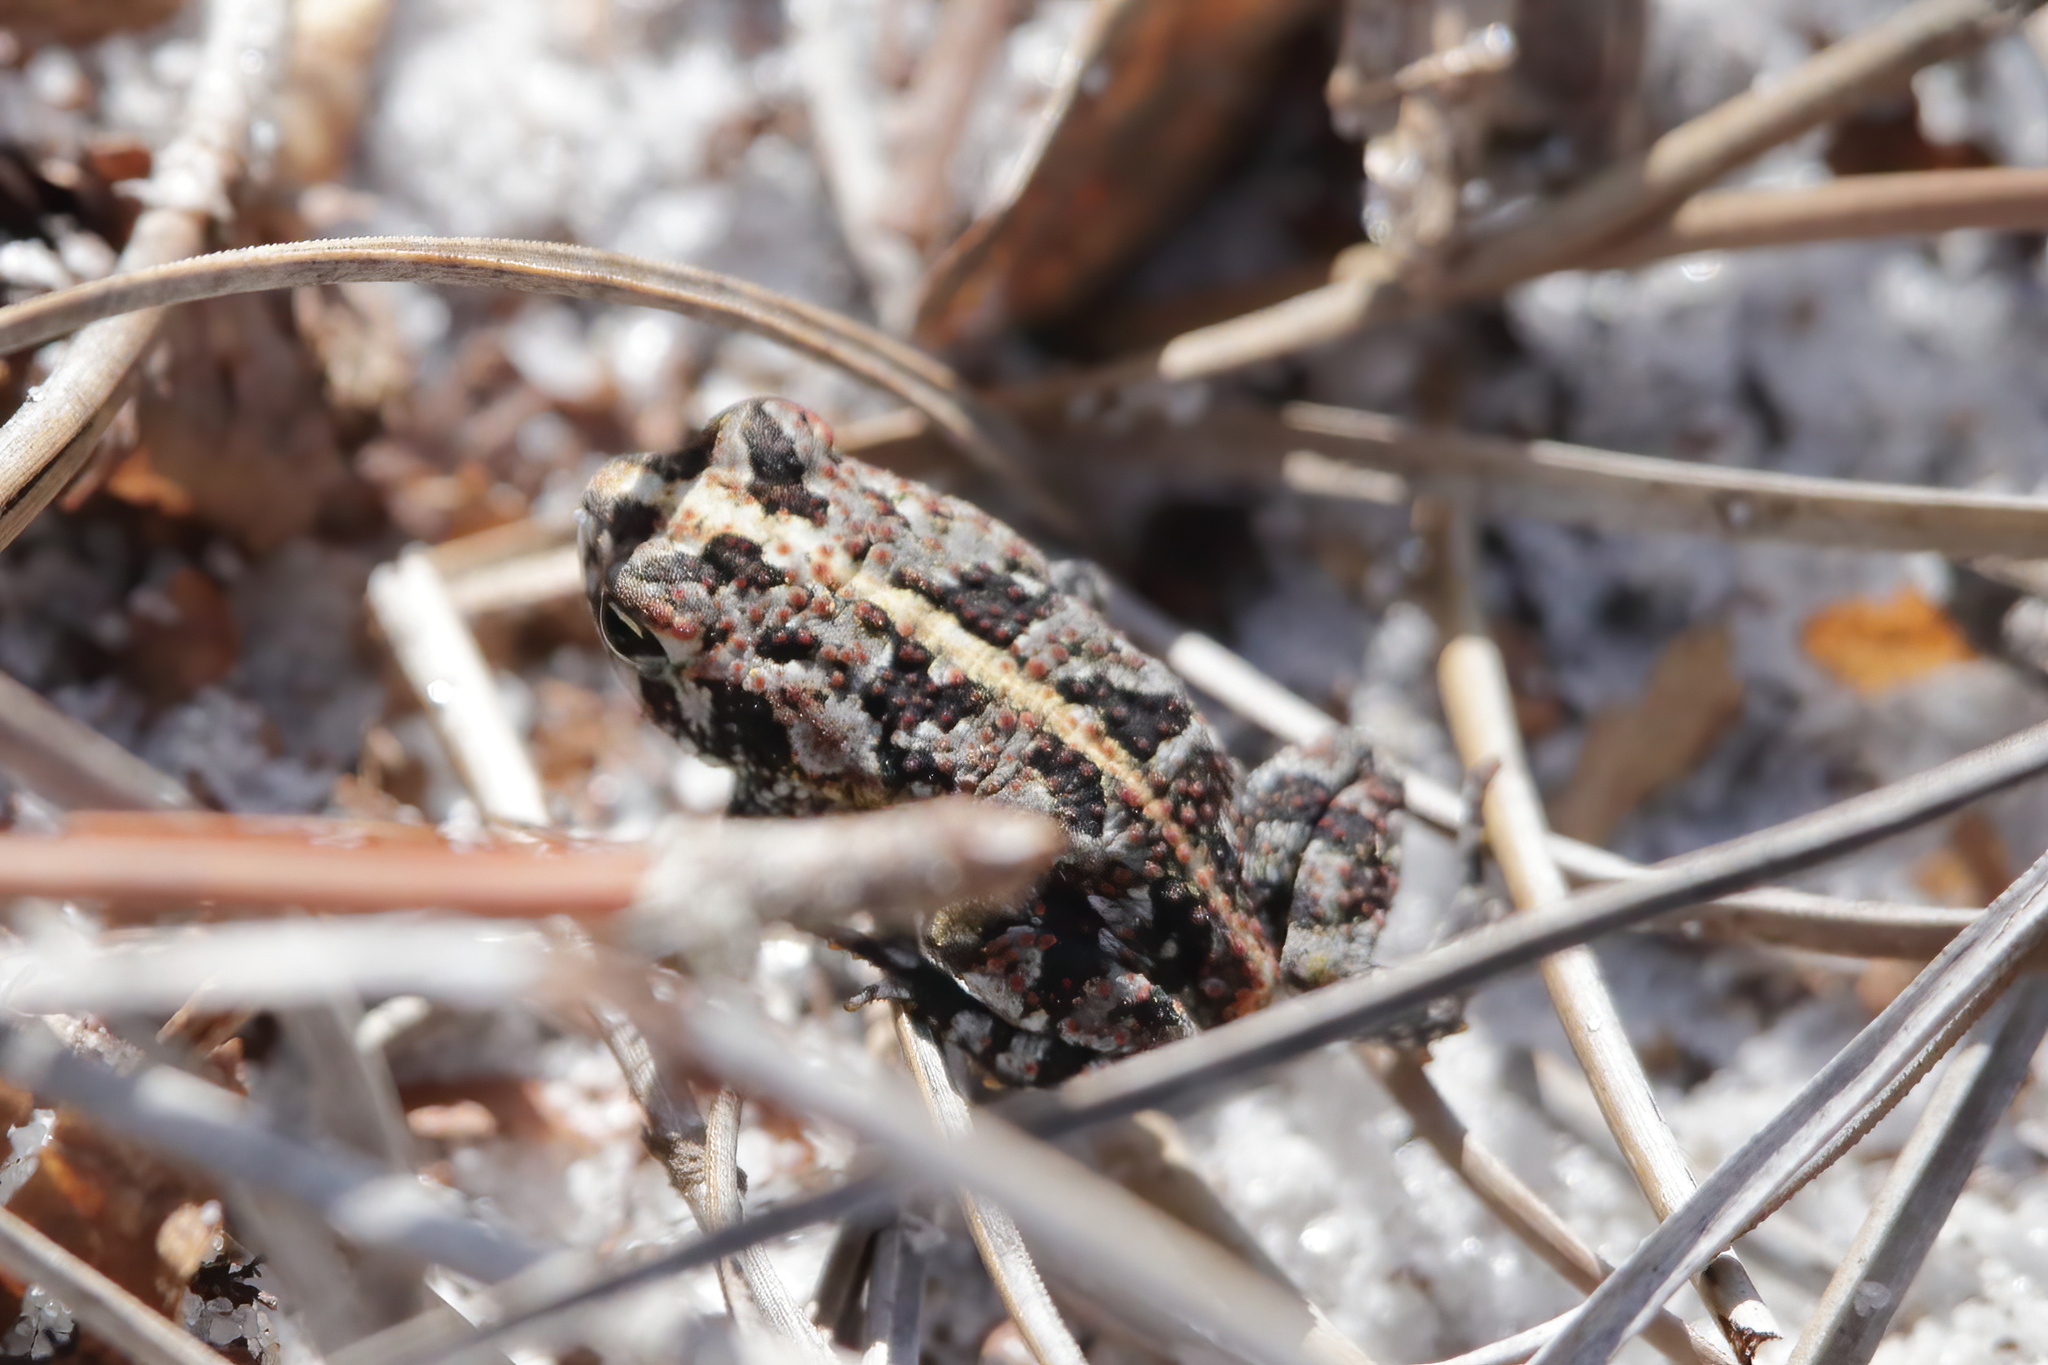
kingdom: Animalia
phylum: Chordata
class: Amphibia
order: Anura
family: Bufonidae
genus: Anaxyrus
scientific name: Anaxyrus quercicus
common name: Oak toad
